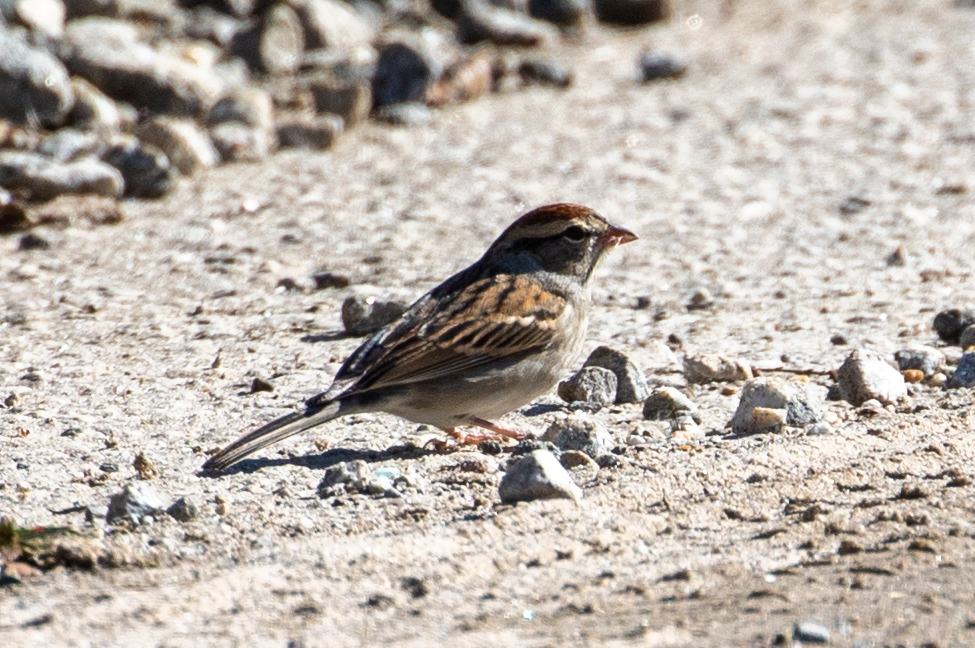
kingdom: Animalia
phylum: Chordata
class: Aves
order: Passeriformes
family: Passerellidae
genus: Spizella
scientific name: Spizella passerina
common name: Chipping sparrow
